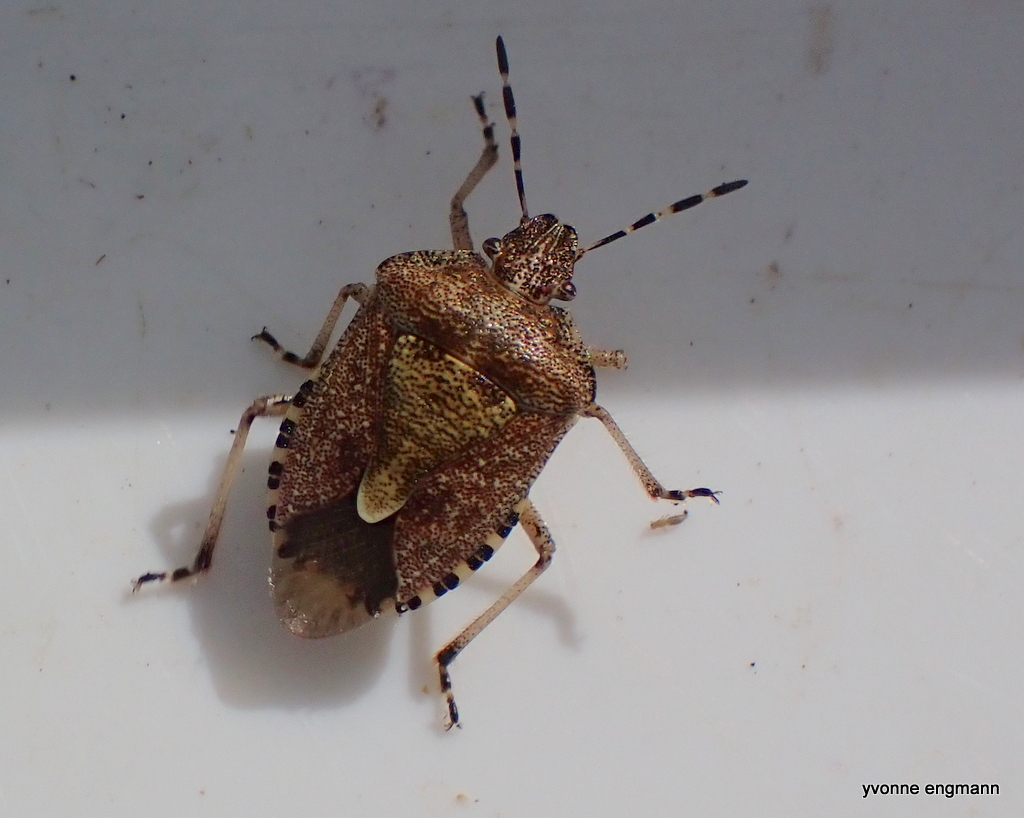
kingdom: Animalia
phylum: Arthropoda
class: Insecta
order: Hemiptera
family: Pentatomidae
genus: Dolycoris
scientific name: Dolycoris baccarum
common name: Sloe bug
